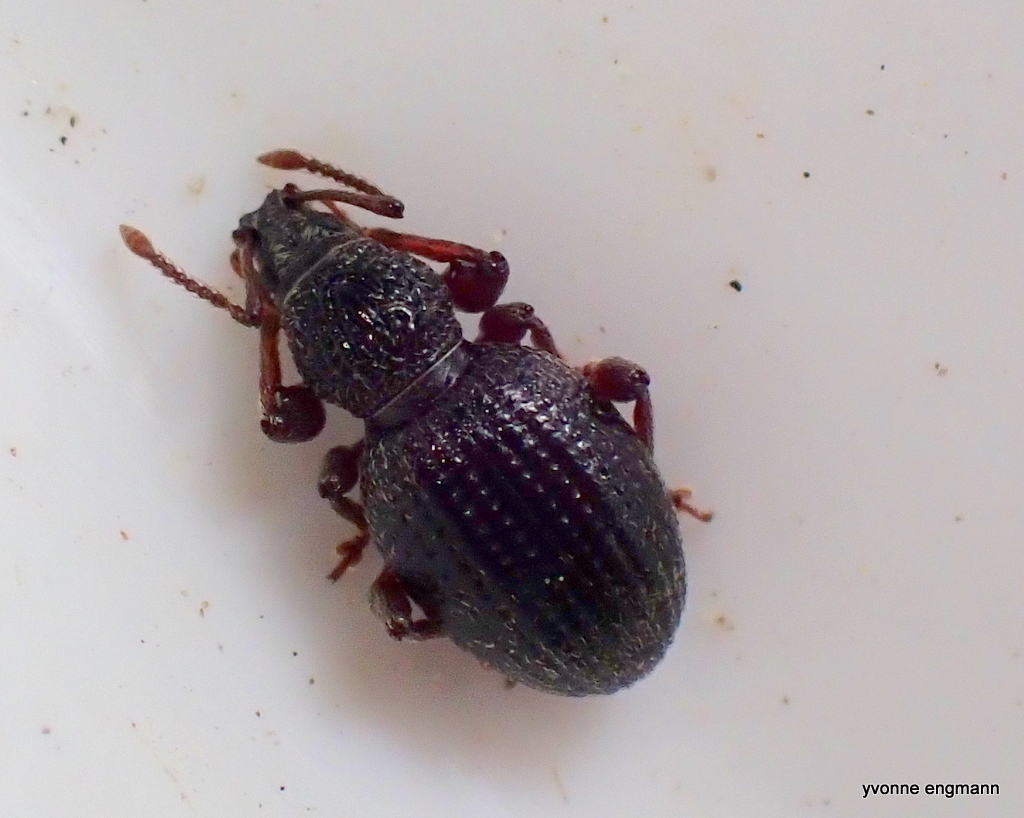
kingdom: Animalia
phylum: Arthropoda
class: Insecta
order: Coleoptera
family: Curculionidae
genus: Otiorhynchus
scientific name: Otiorhynchus ovatus
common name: Strawberry root weevil
